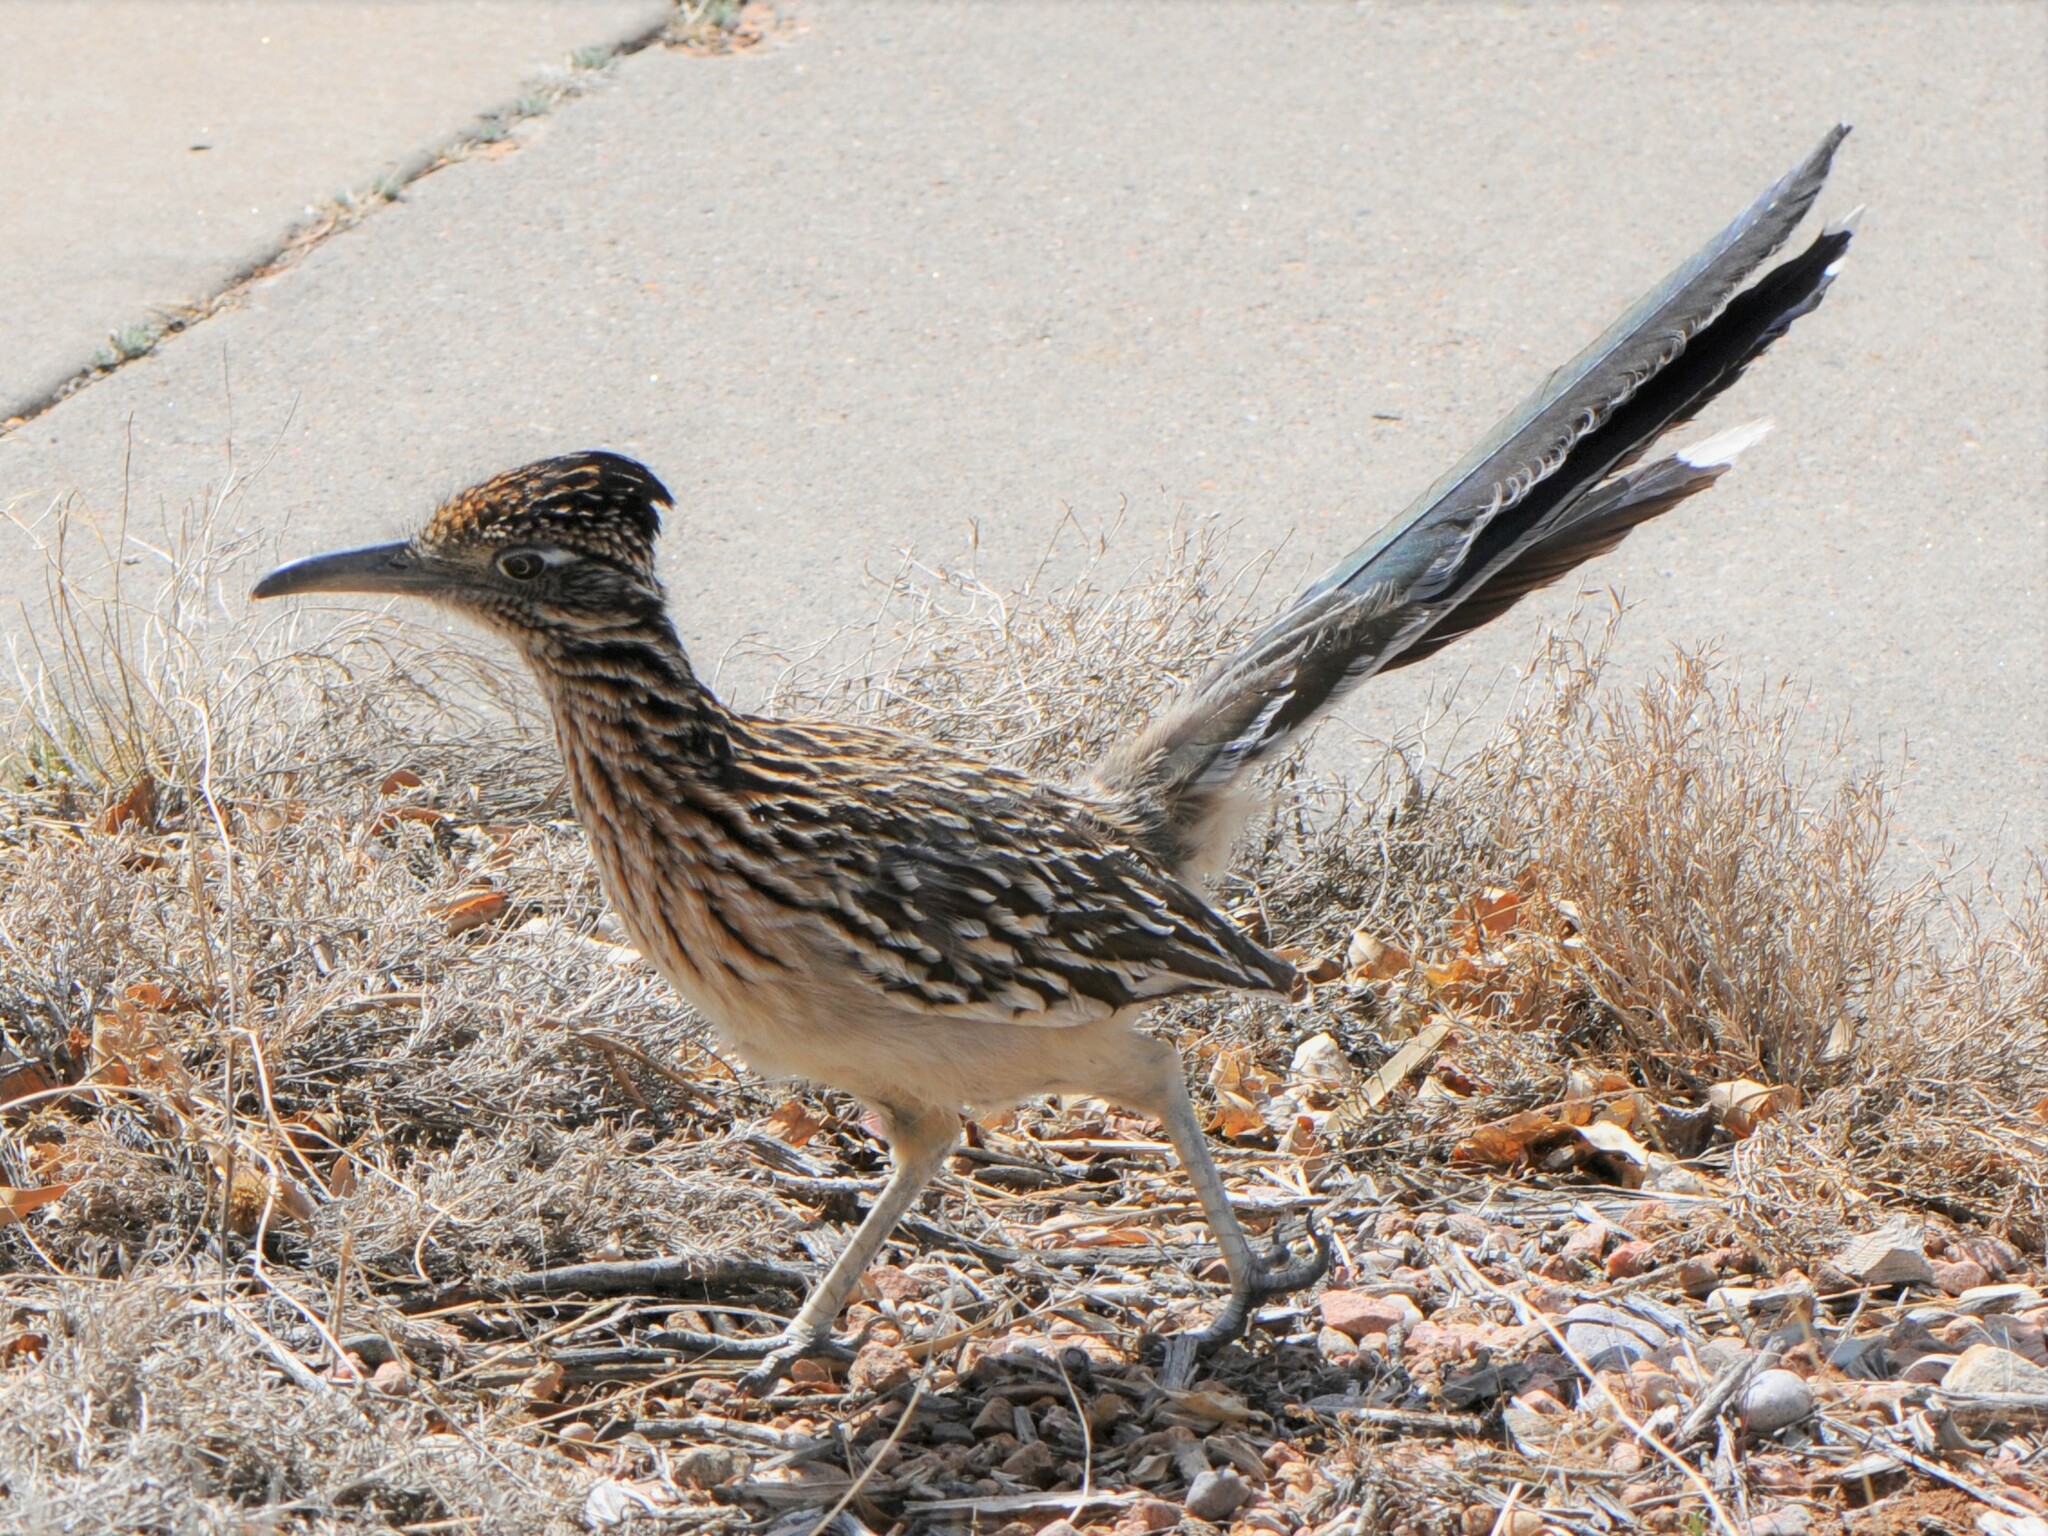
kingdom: Animalia
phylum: Chordata
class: Aves
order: Cuculiformes
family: Cuculidae
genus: Geococcyx
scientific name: Geococcyx californianus
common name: Greater roadrunner
